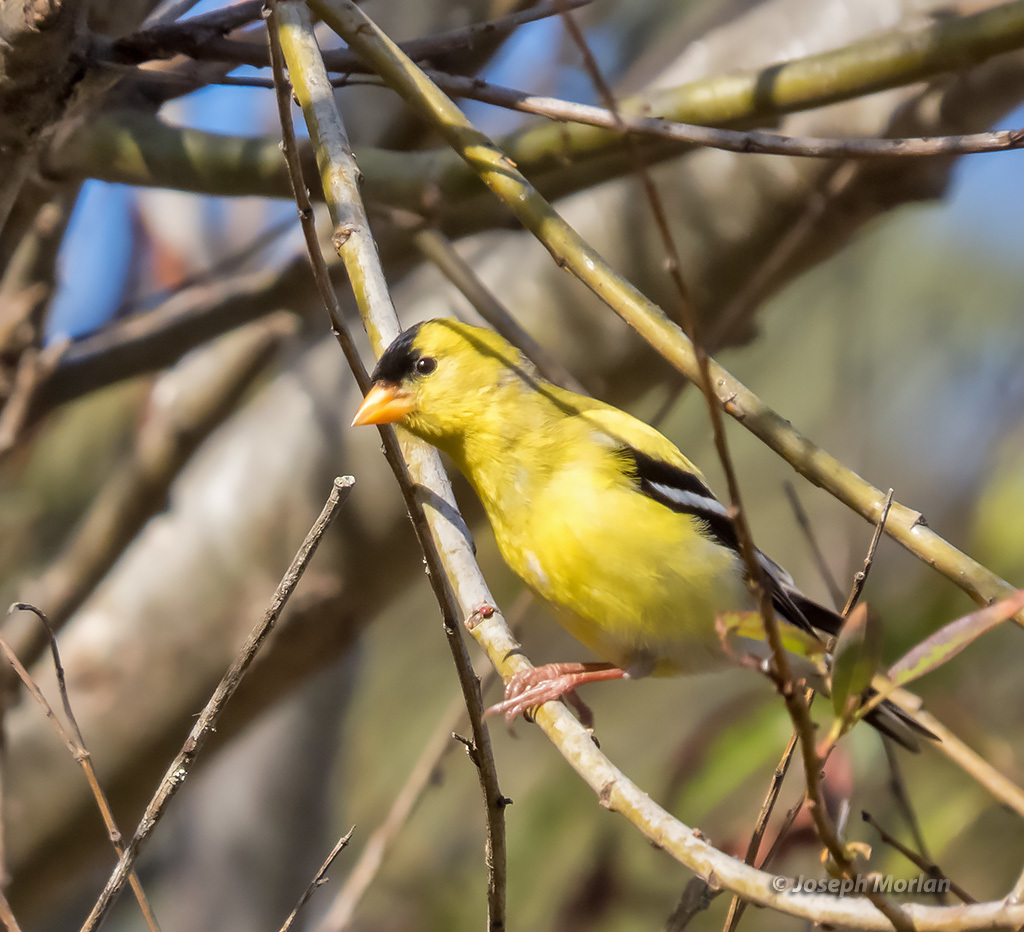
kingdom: Animalia
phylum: Chordata
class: Aves
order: Passeriformes
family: Fringillidae
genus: Spinus
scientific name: Spinus tristis
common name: American goldfinch
